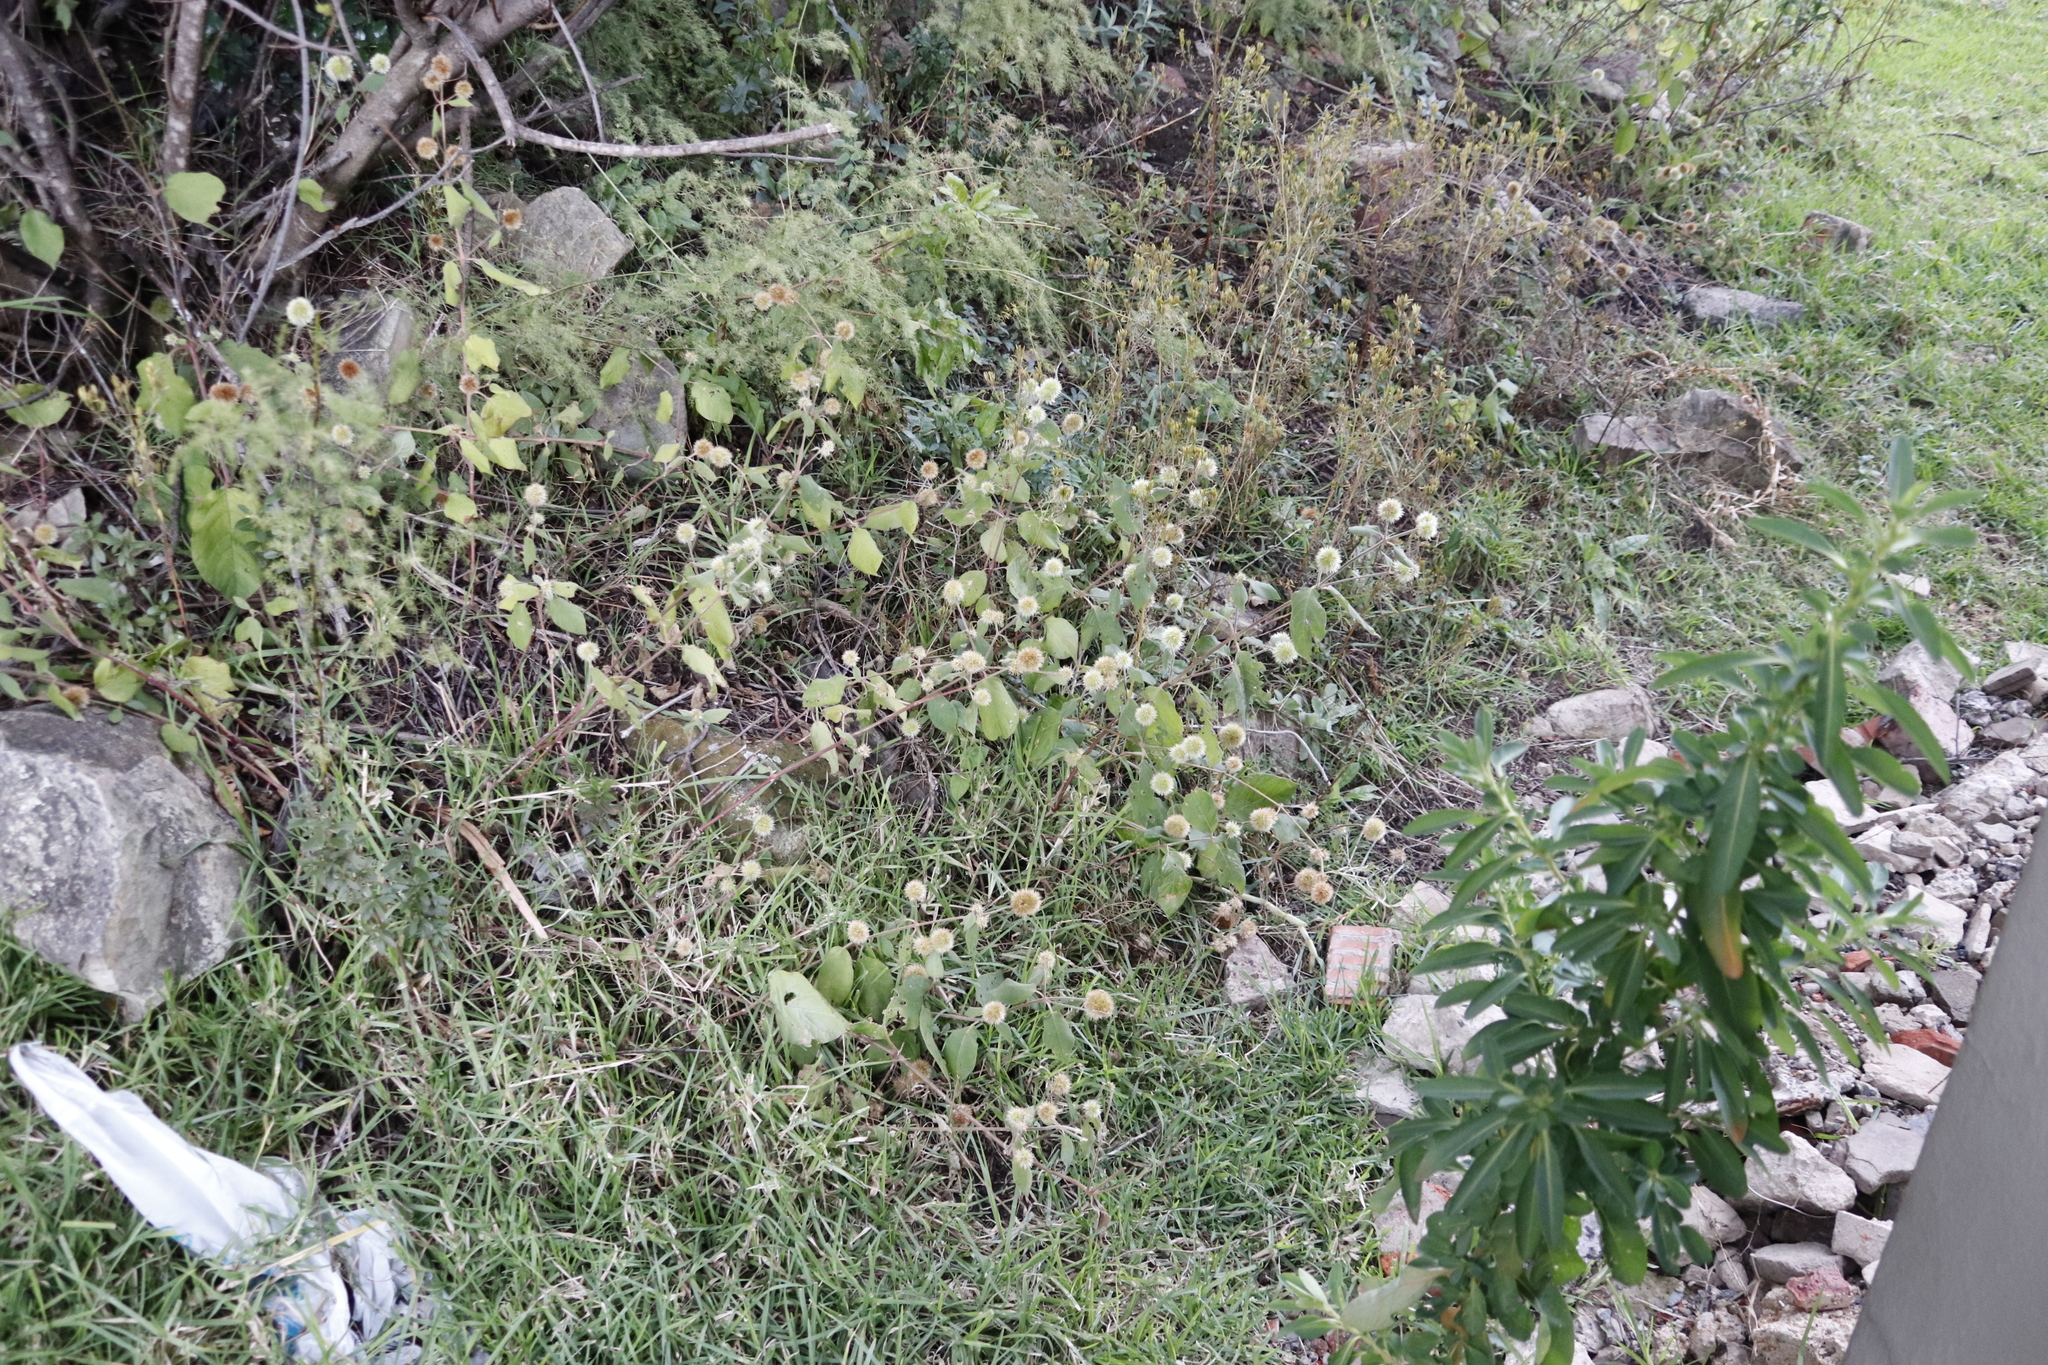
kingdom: Plantae
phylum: Tracheophyta
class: Magnoliopsida
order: Caryophyllales
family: Amaranthaceae
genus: Cyathula
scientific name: Cyathula uncinulata
